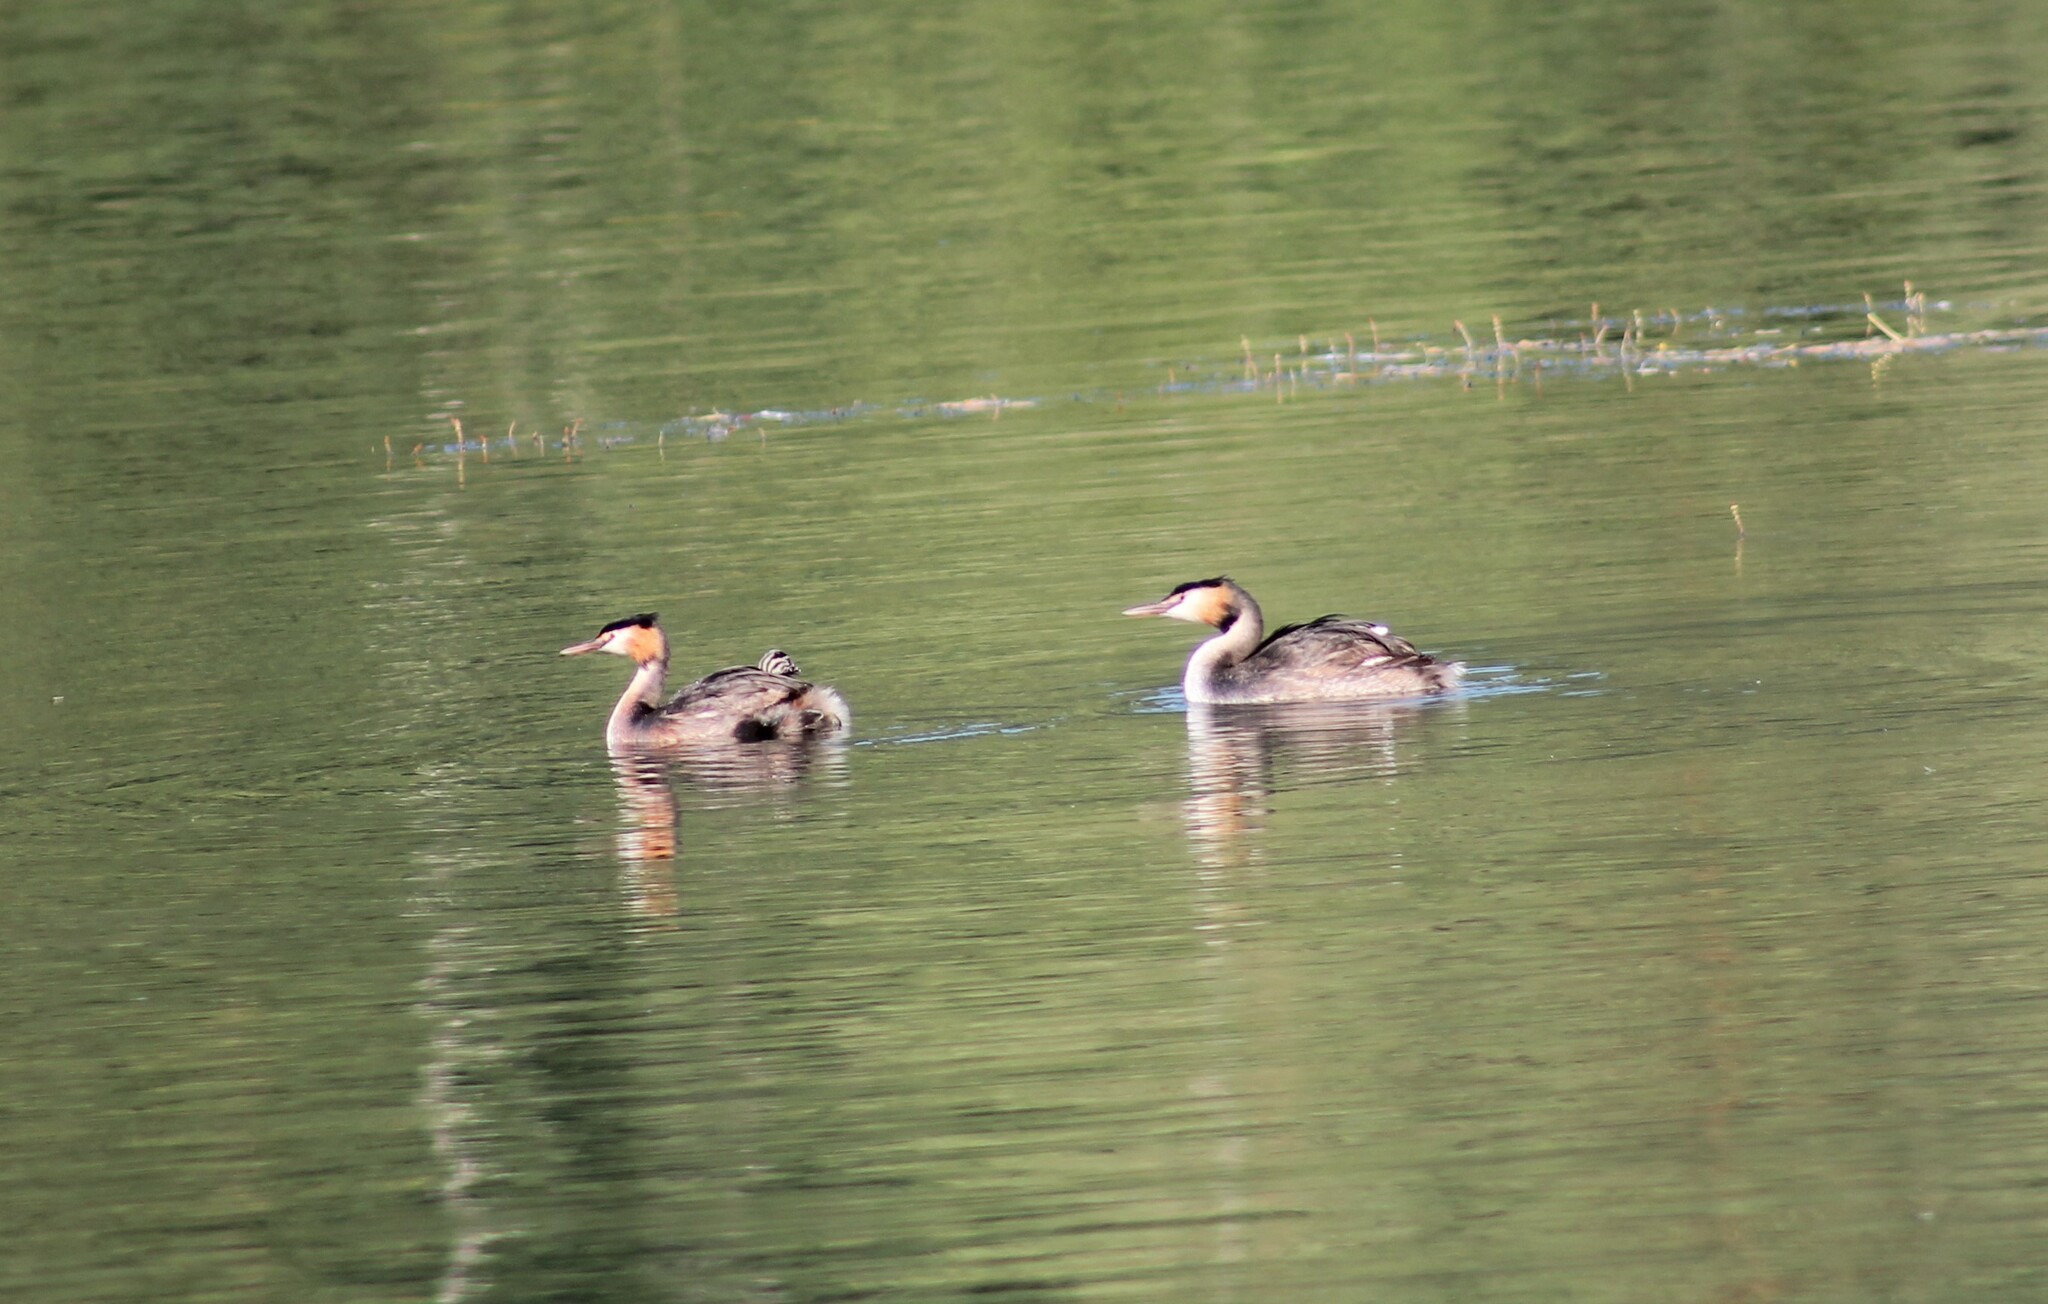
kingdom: Animalia
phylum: Chordata
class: Aves
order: Podicipediformes
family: Podicipedidae
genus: Podiceps
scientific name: Podiceps cristatus
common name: Great crested grebe
